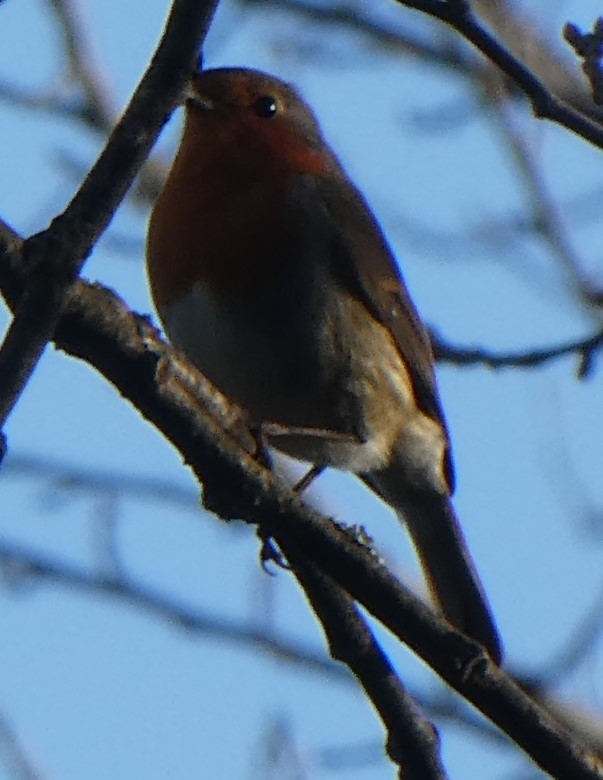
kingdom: Animalia
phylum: Chordata
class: Aves
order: Passeriformes
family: Muscicapidae
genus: Erithacus
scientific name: Erithacus rubecula
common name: European robin
